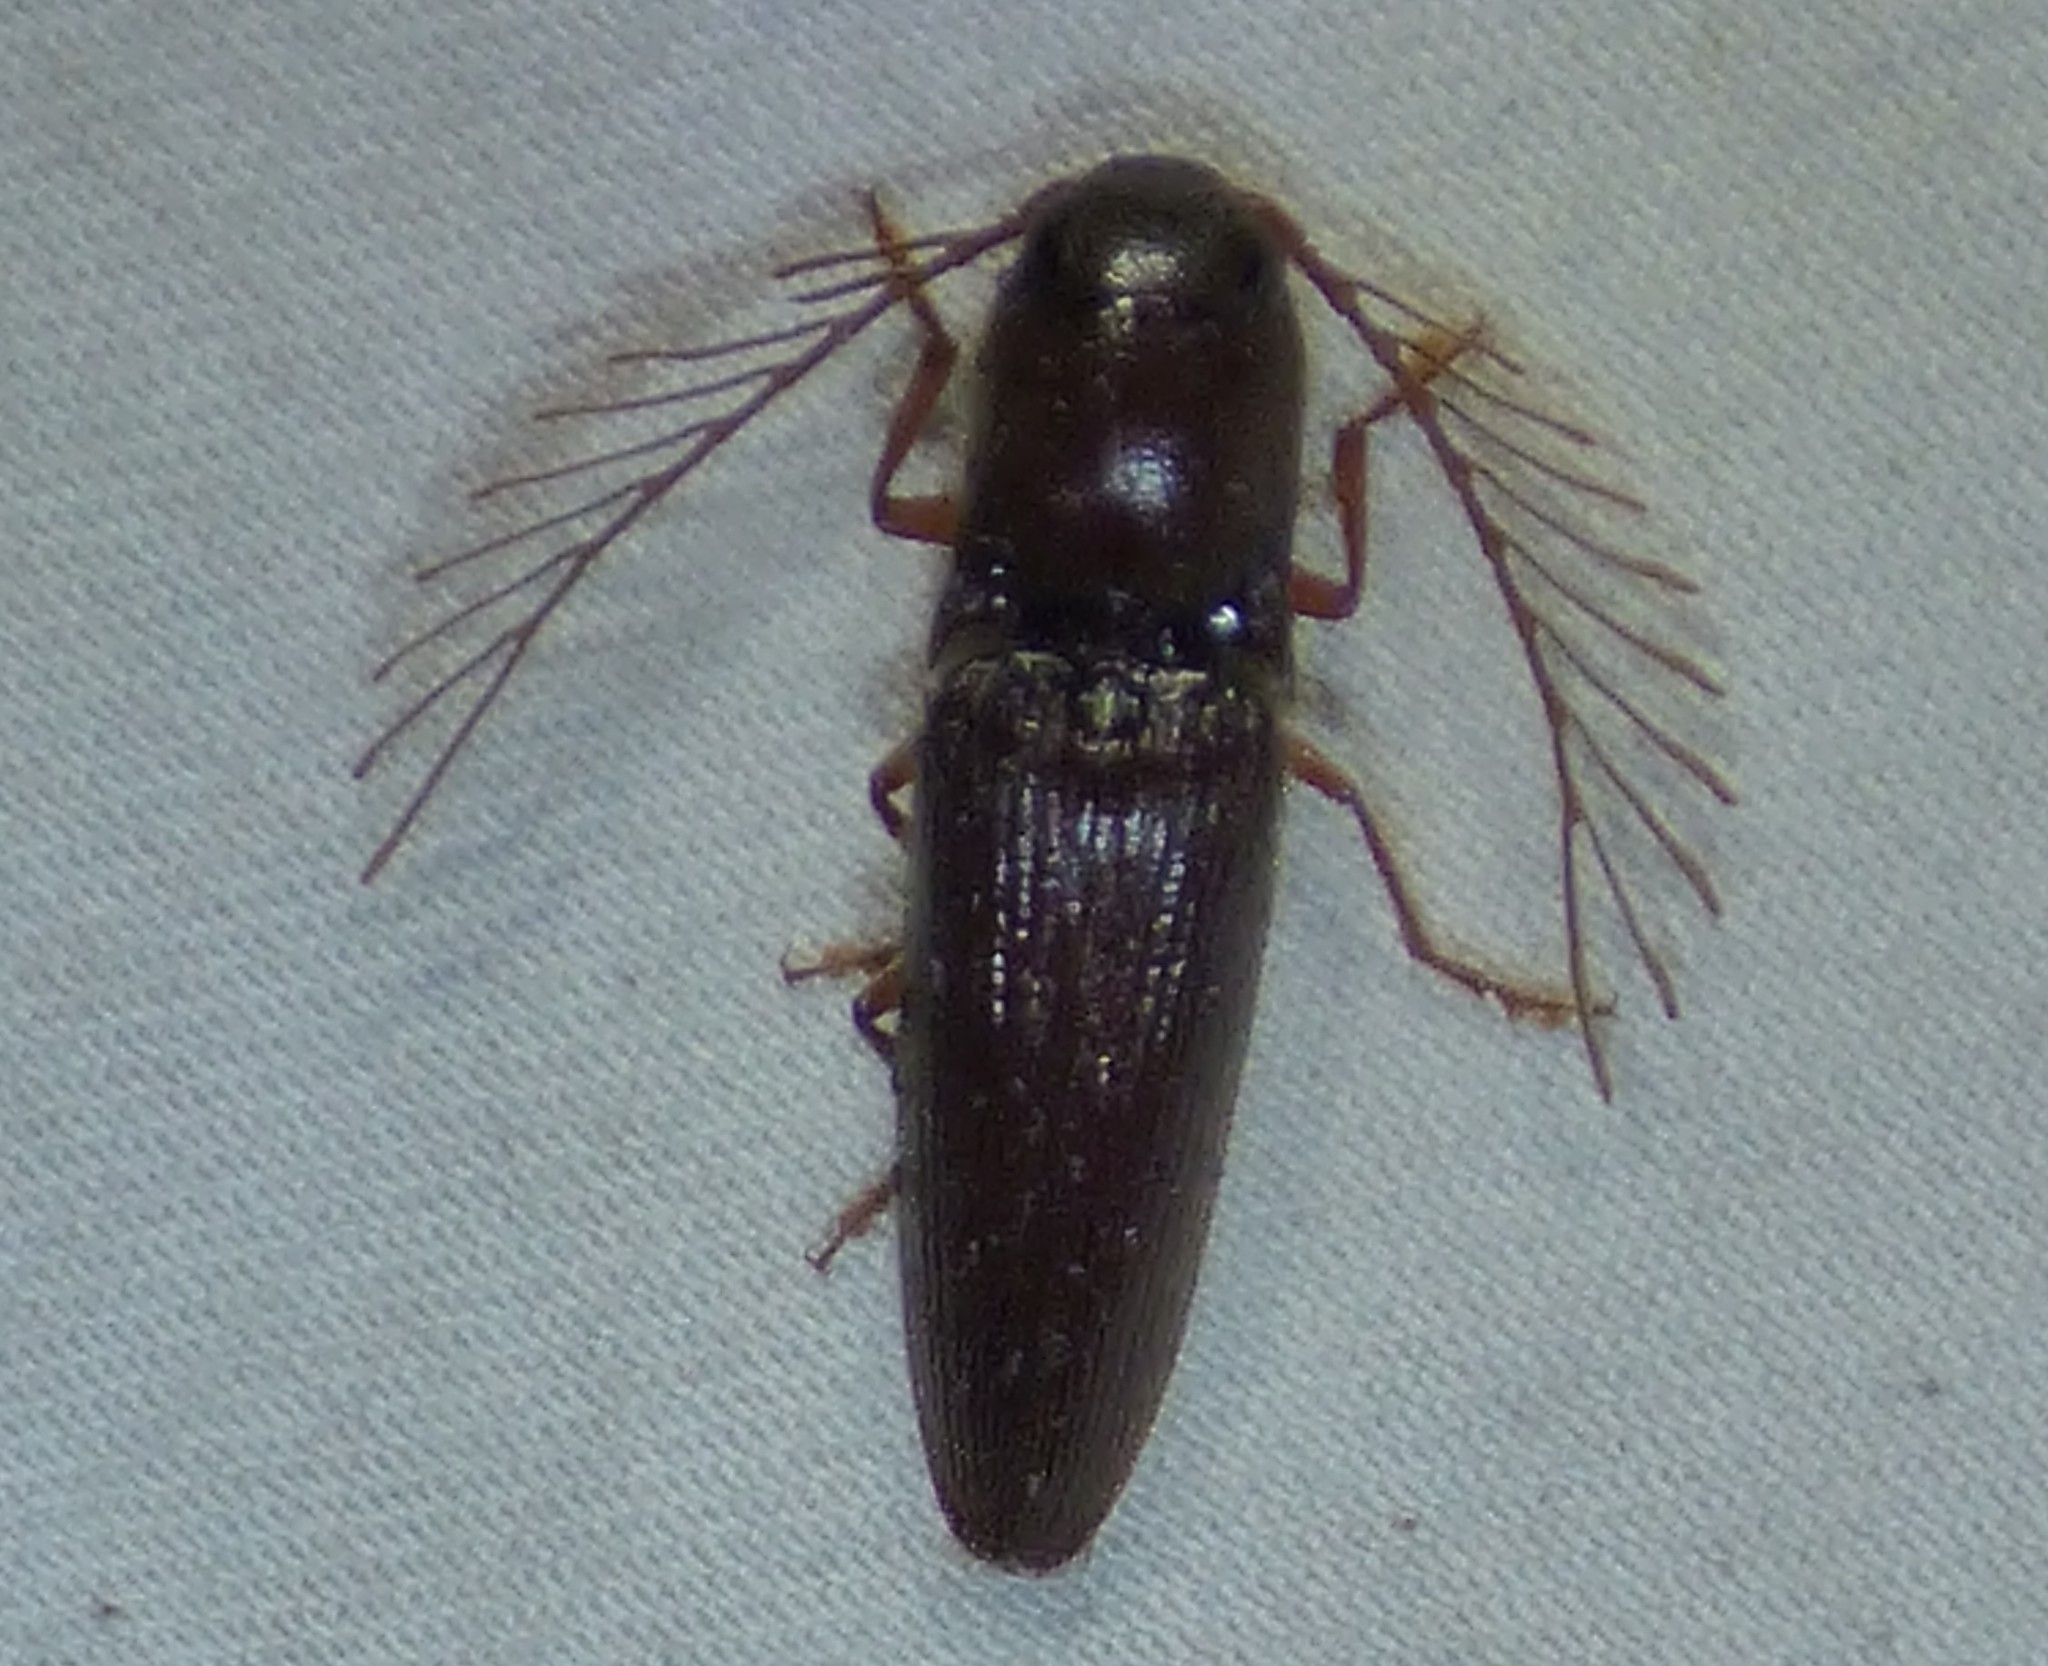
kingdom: Animalia
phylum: Arthropoda
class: Insecta
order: Coleoptera
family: Elateridae
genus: Dicrepidius
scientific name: Dicrepidius palmatus
